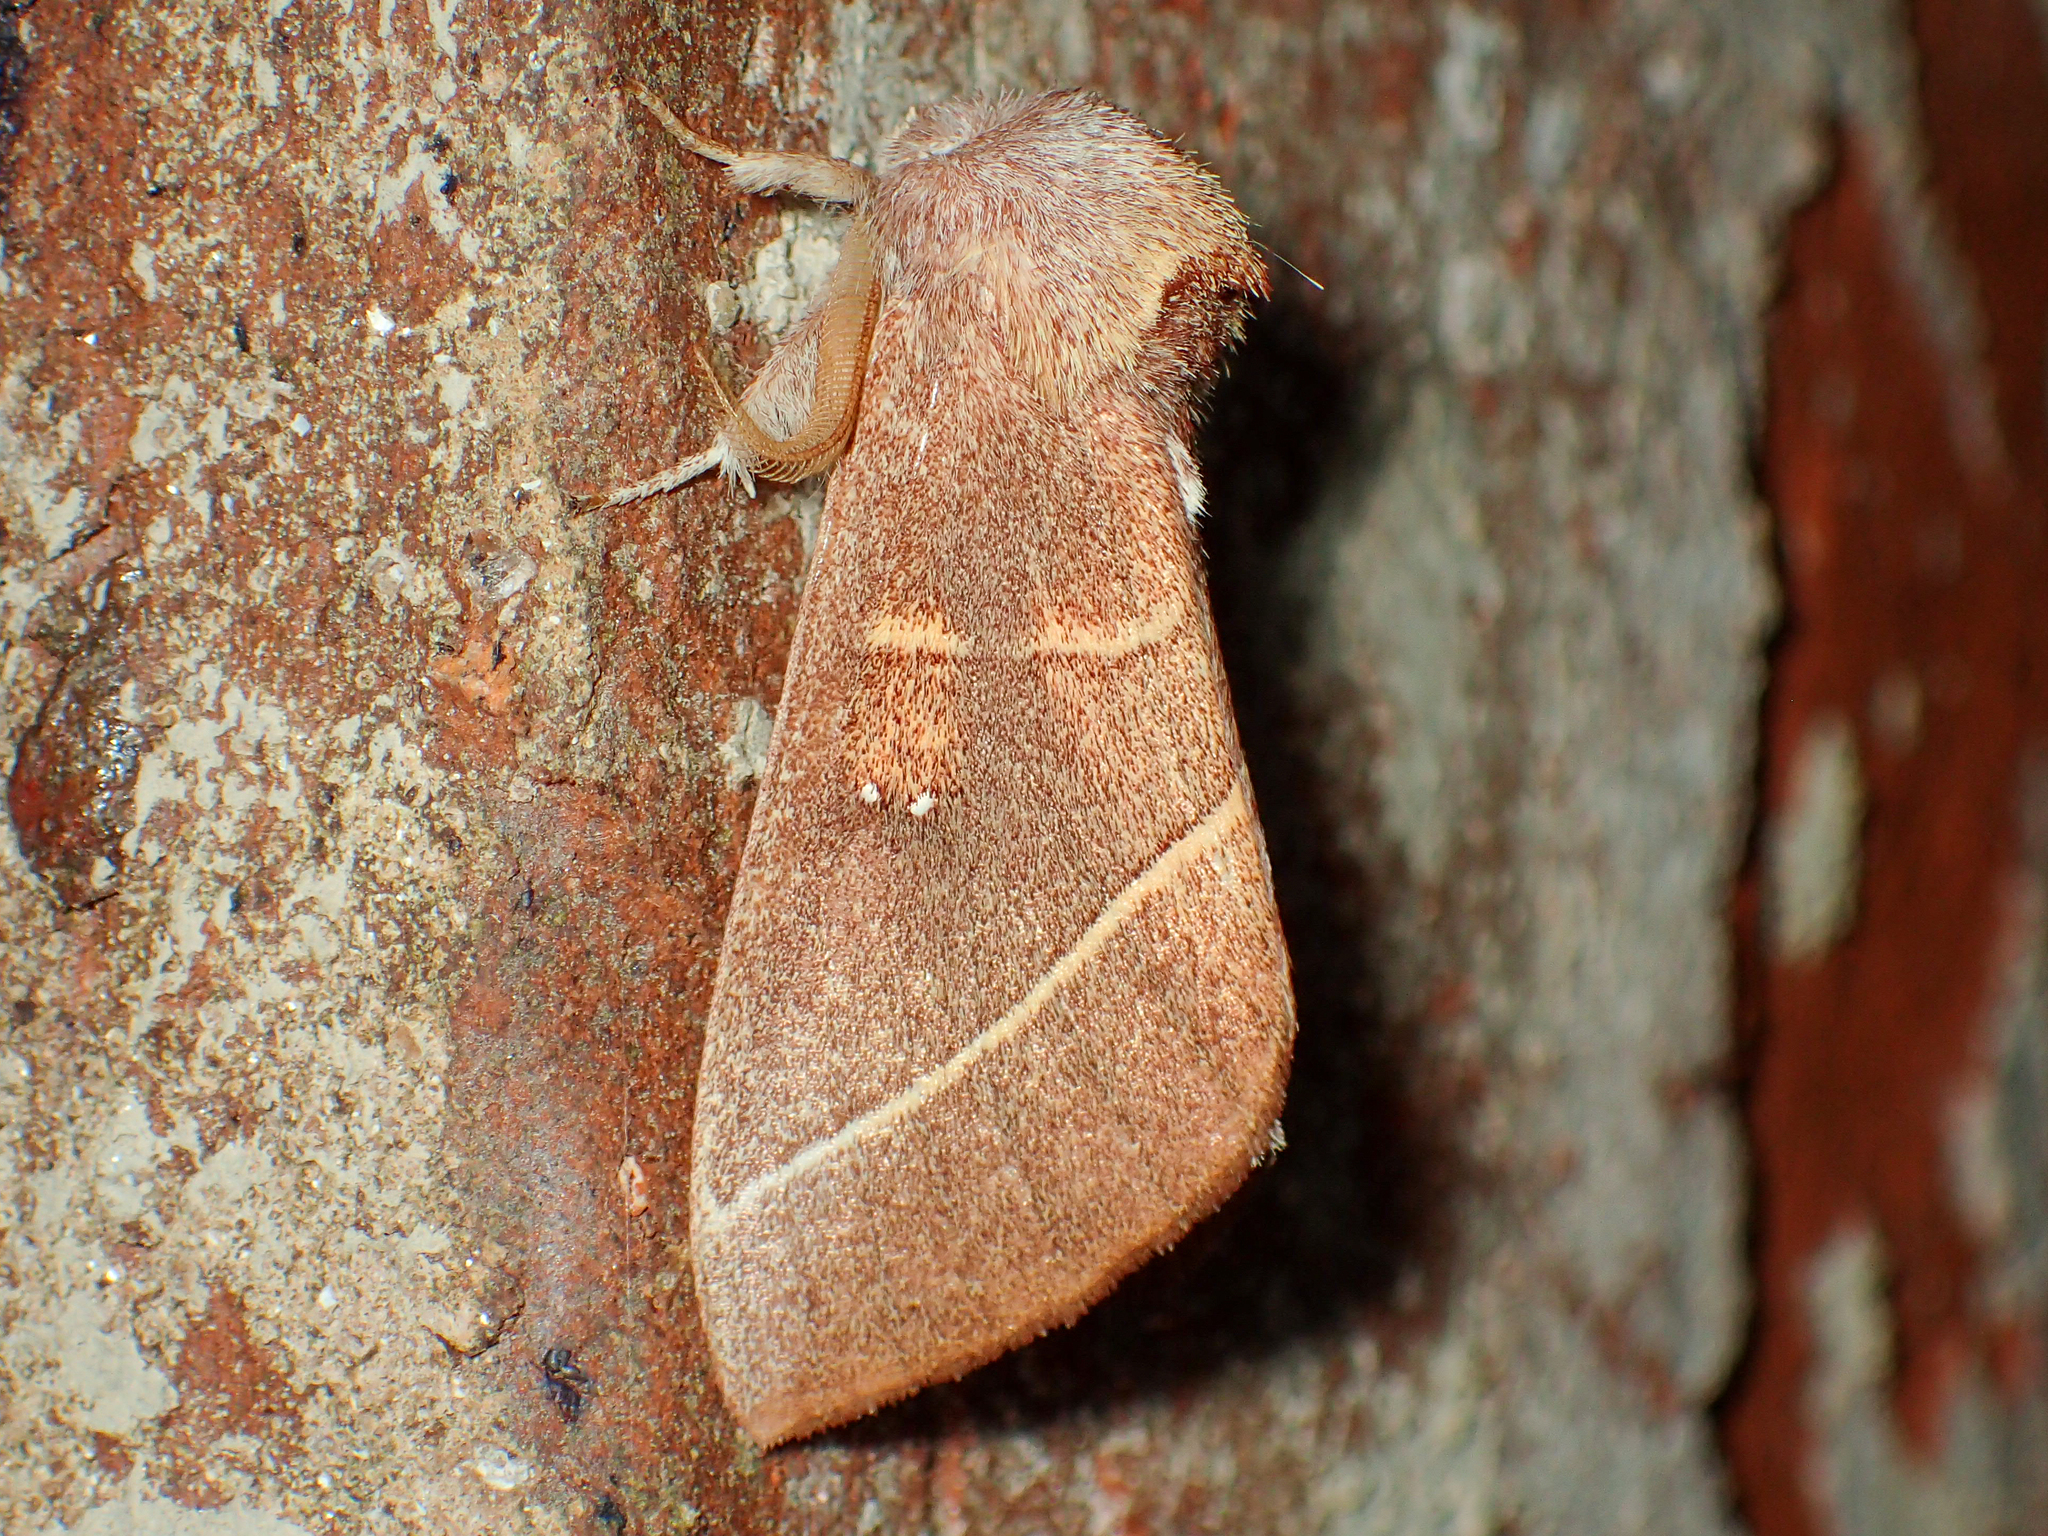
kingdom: Animalia
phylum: Arthropoda
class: Insecta
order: Lepidoptera
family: Notodontidae
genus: Nadata
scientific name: Nadata gibbosa
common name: White-dotted prominent
